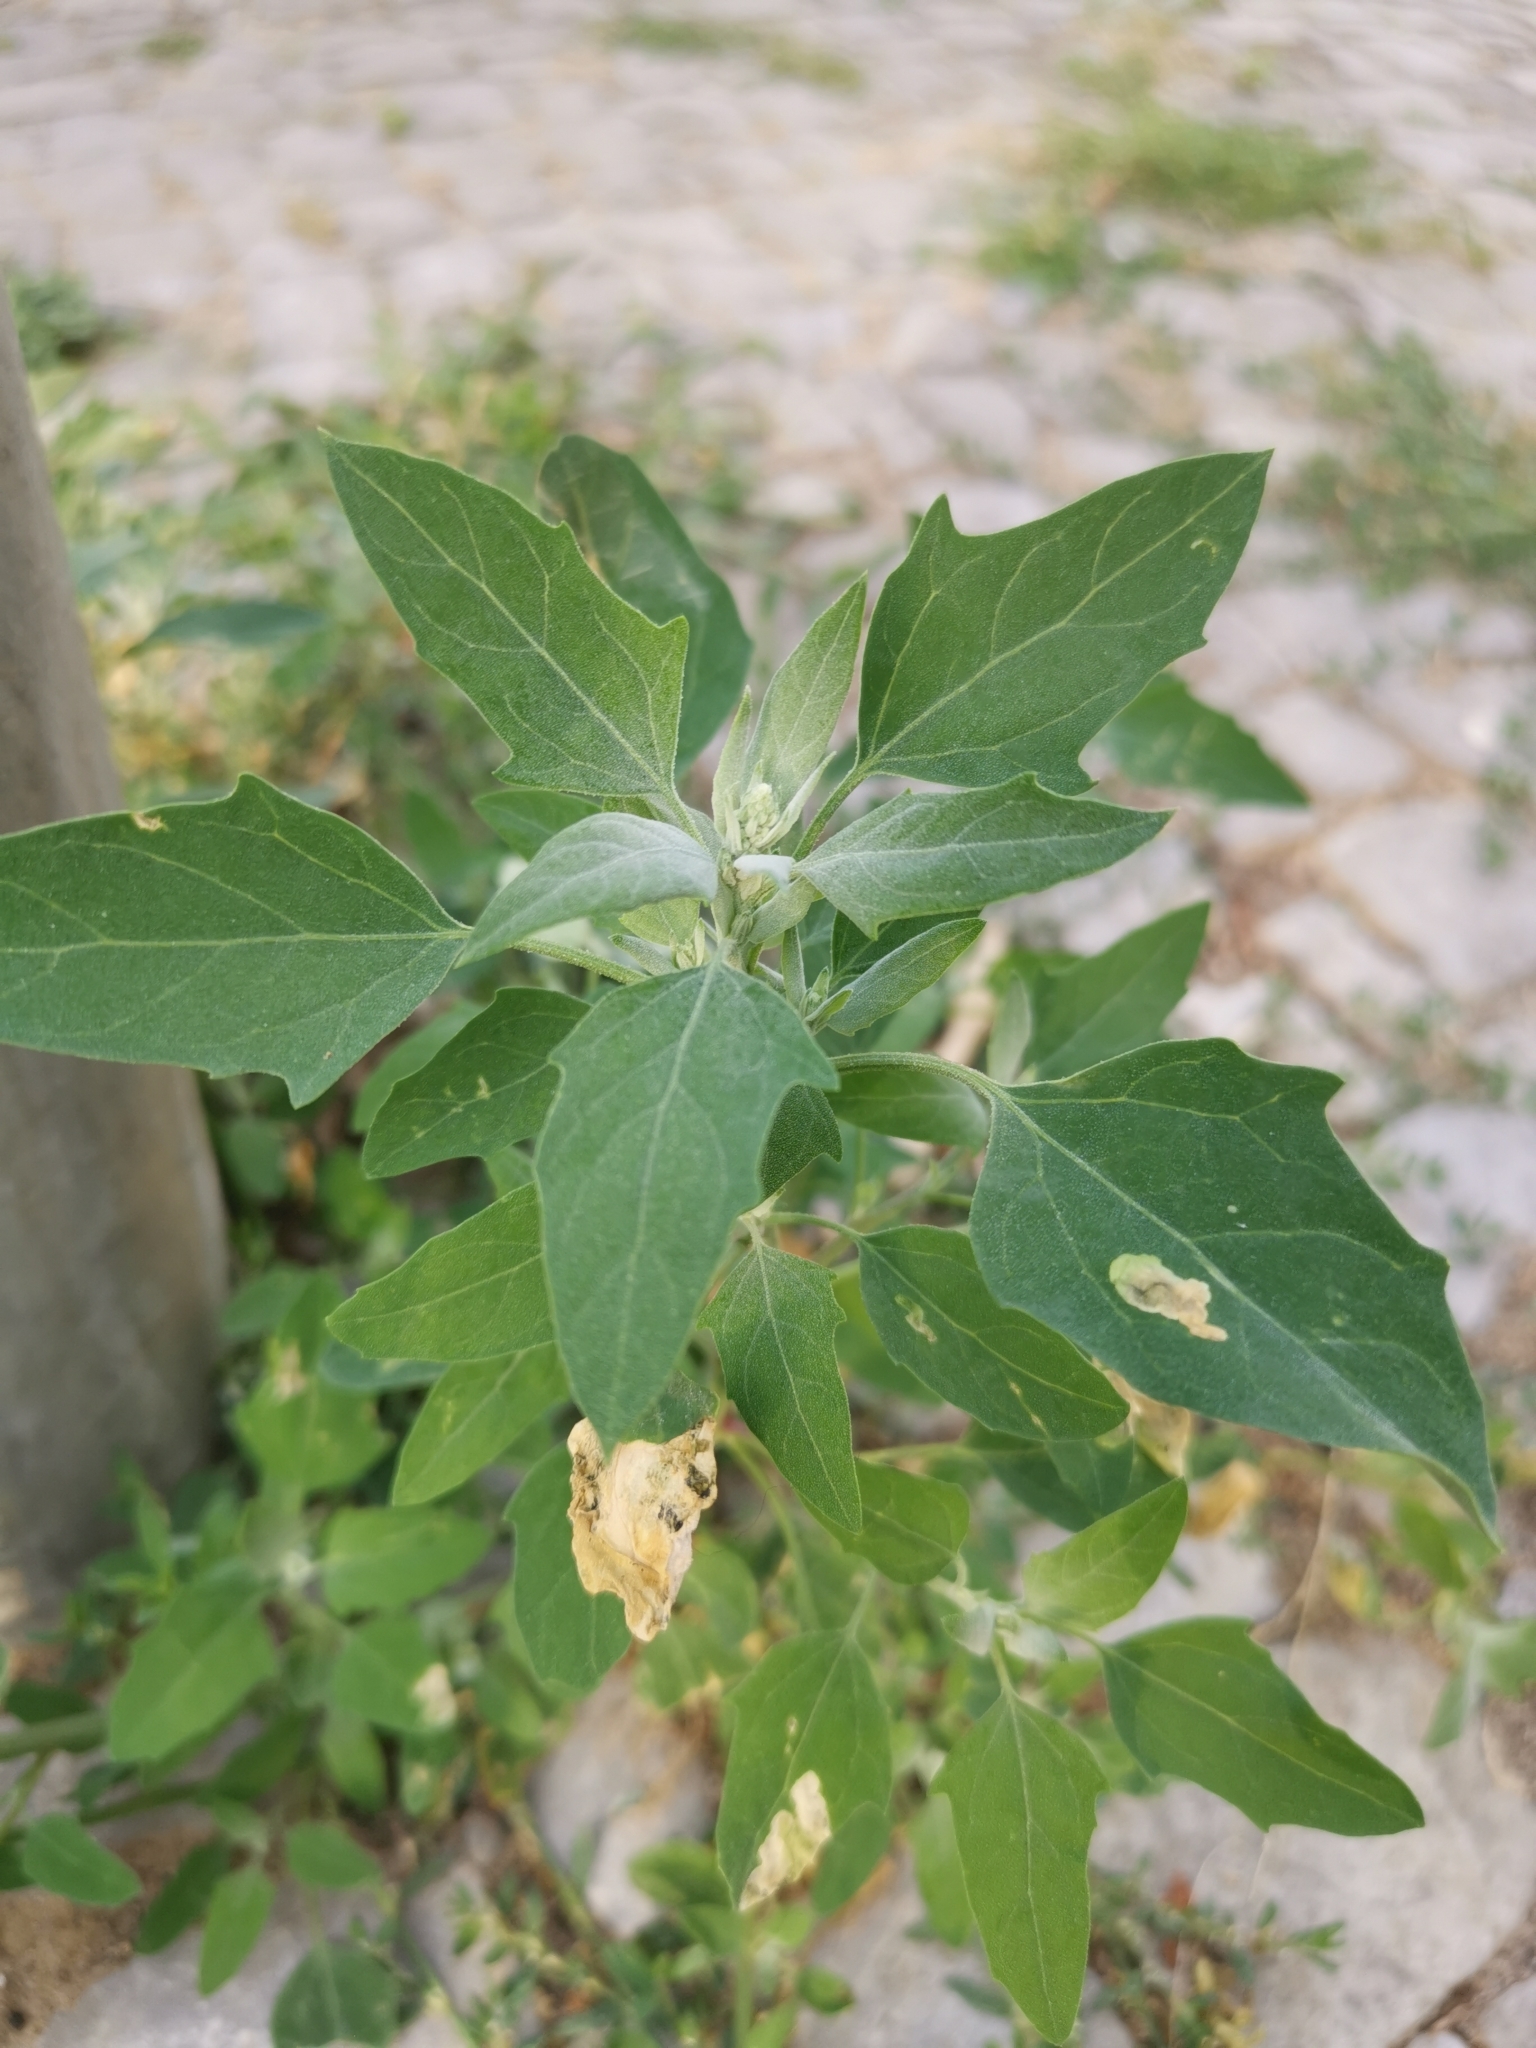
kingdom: Plantae
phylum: Tracheophyta
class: Magnoliopsida
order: Caryophyllales
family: Amaranthaceae
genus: Chenopodium
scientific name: Chenopodium album
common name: Fat-hen
